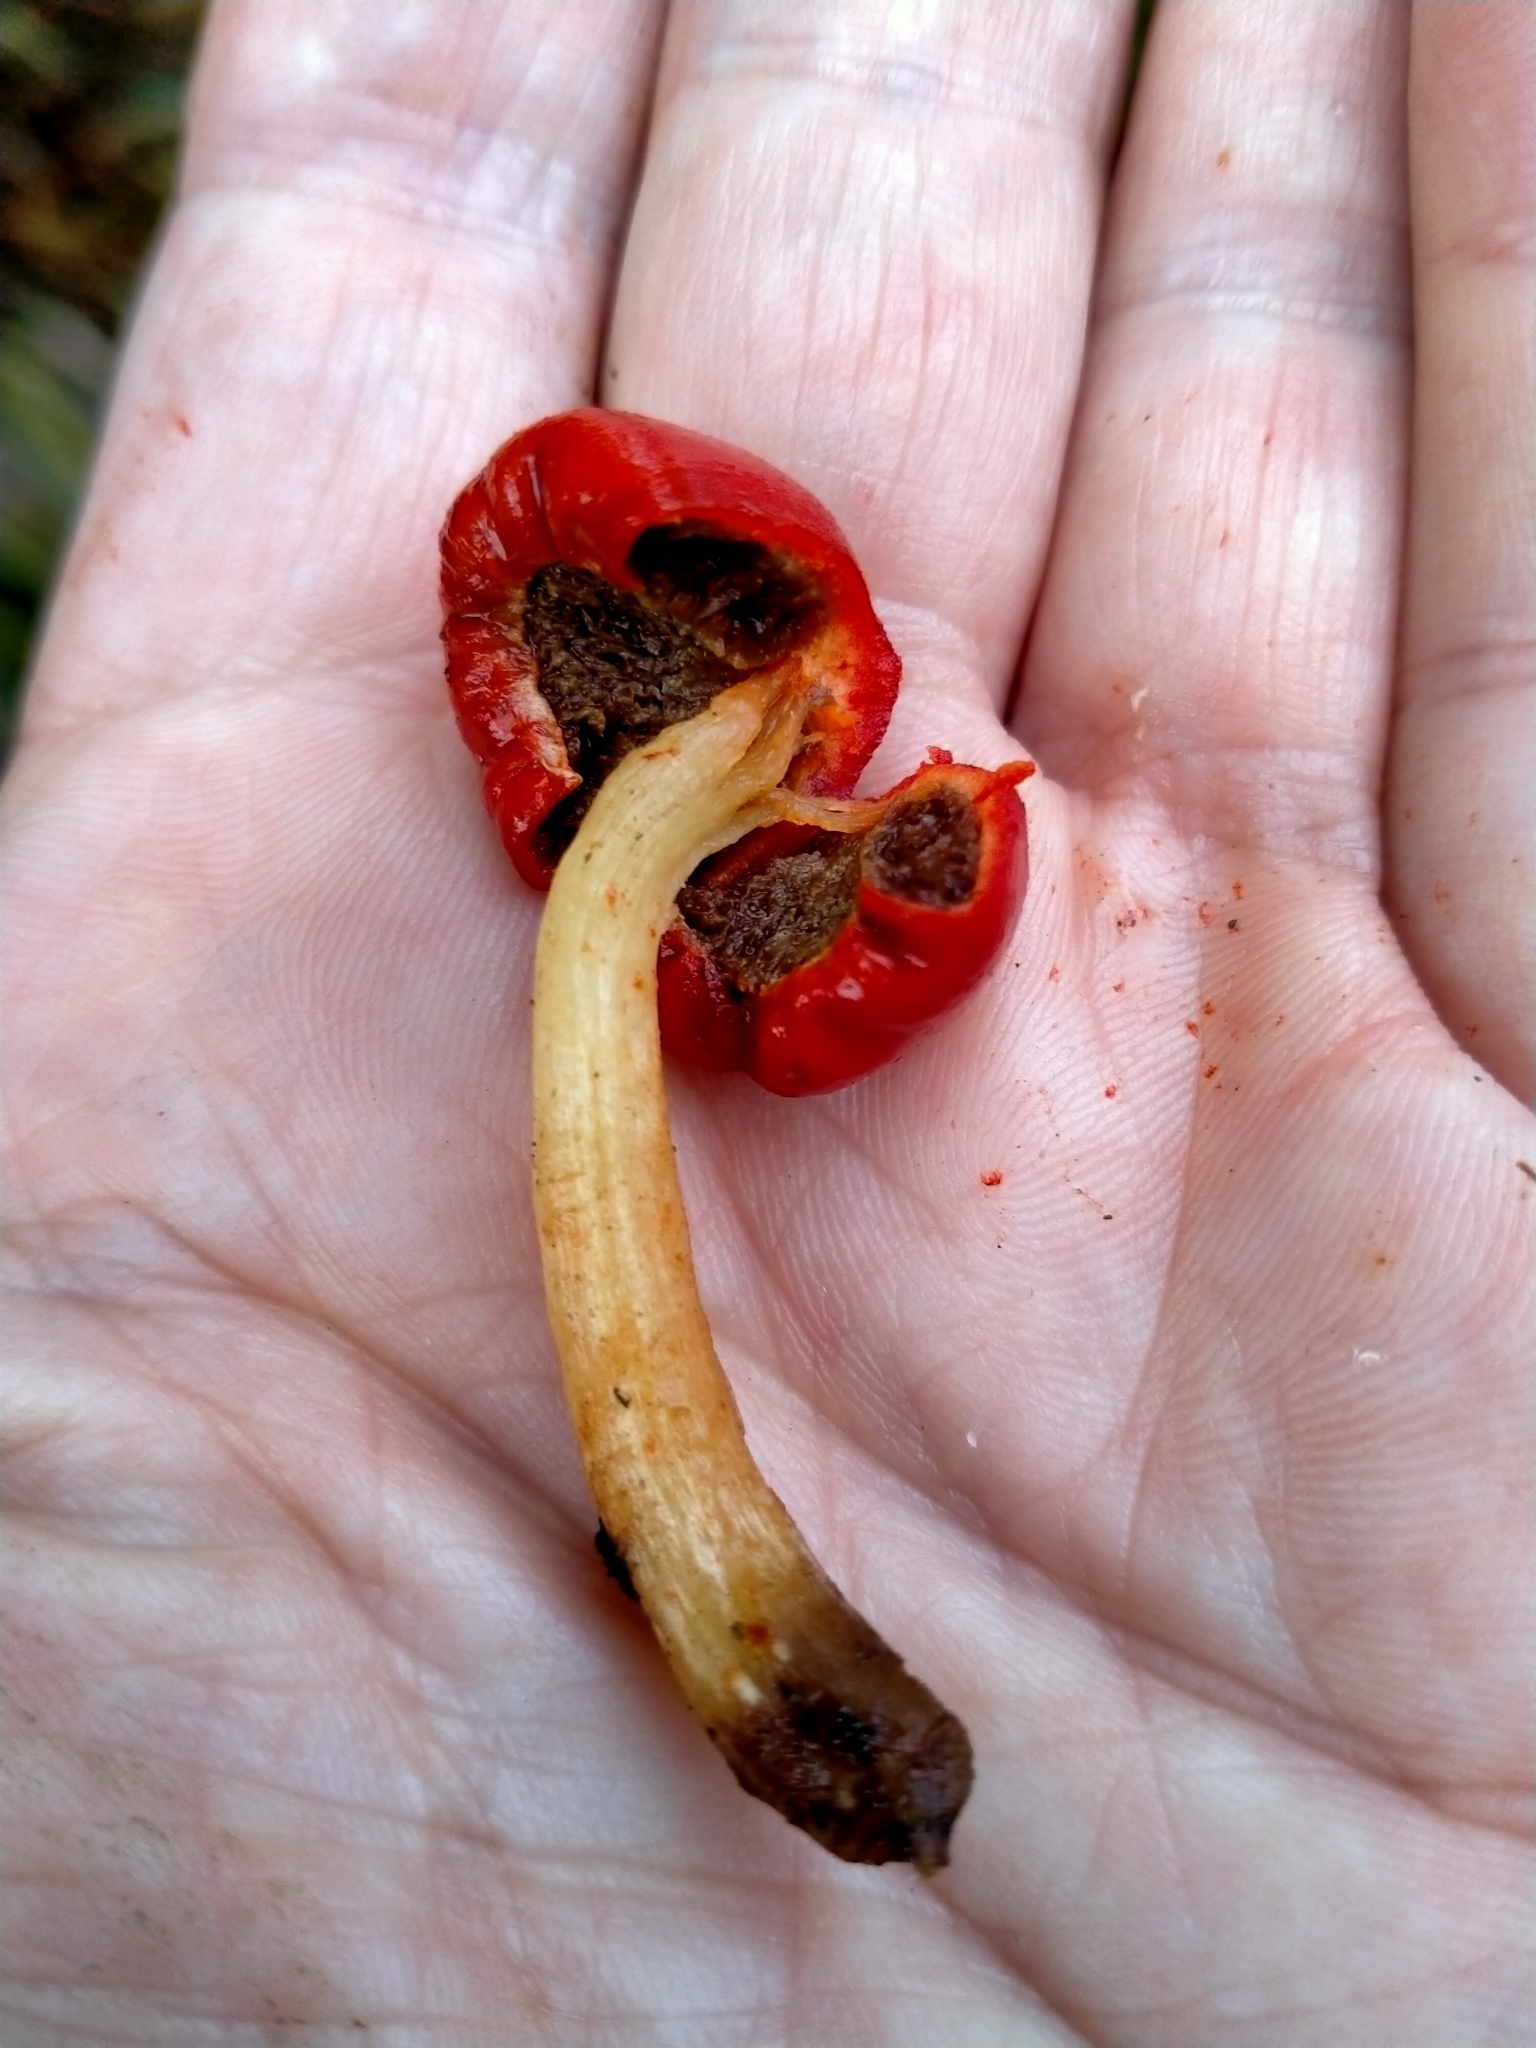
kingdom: Fungi
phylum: Basidiomycota
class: Agaricomycetes
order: Agaricales
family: Strophariaceae
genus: Leratiomyces
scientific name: Leratiomyces erythrocephalus
